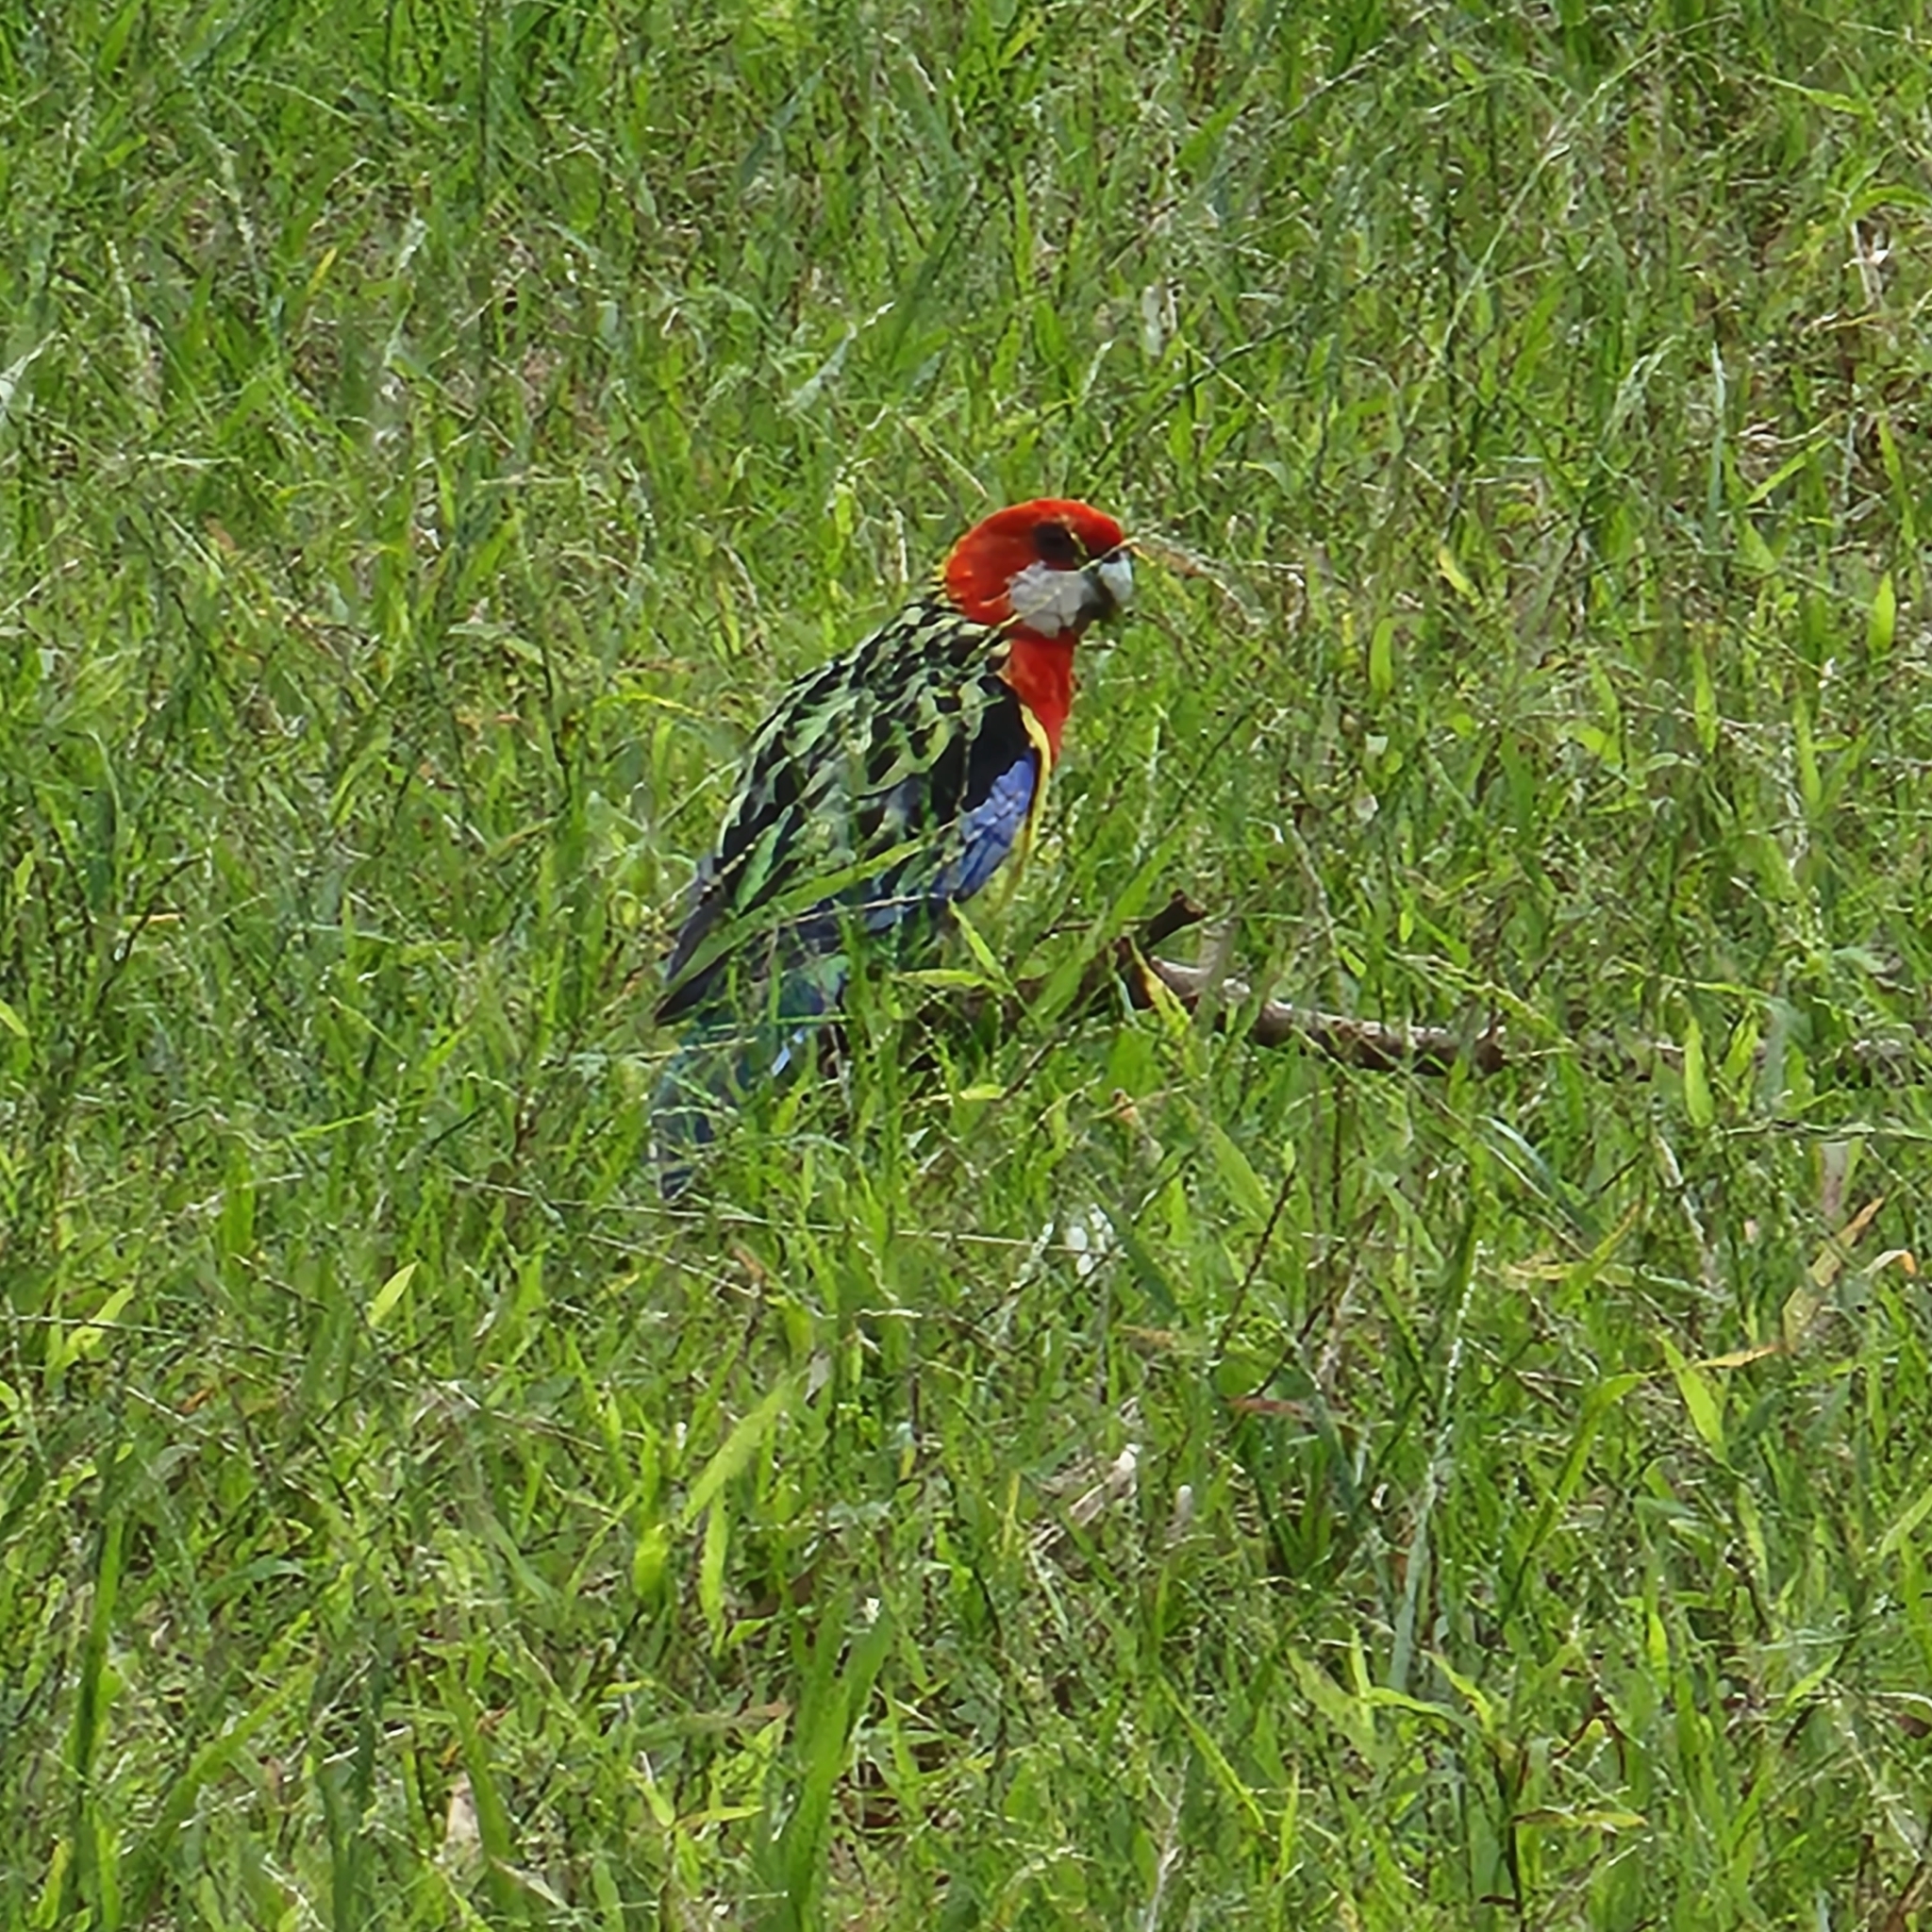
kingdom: Animalia
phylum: Chordata
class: Aves
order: Psittaciformes
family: Psittacidae
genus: Platycercus
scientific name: Platycercus eximius
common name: Eastern rosella
